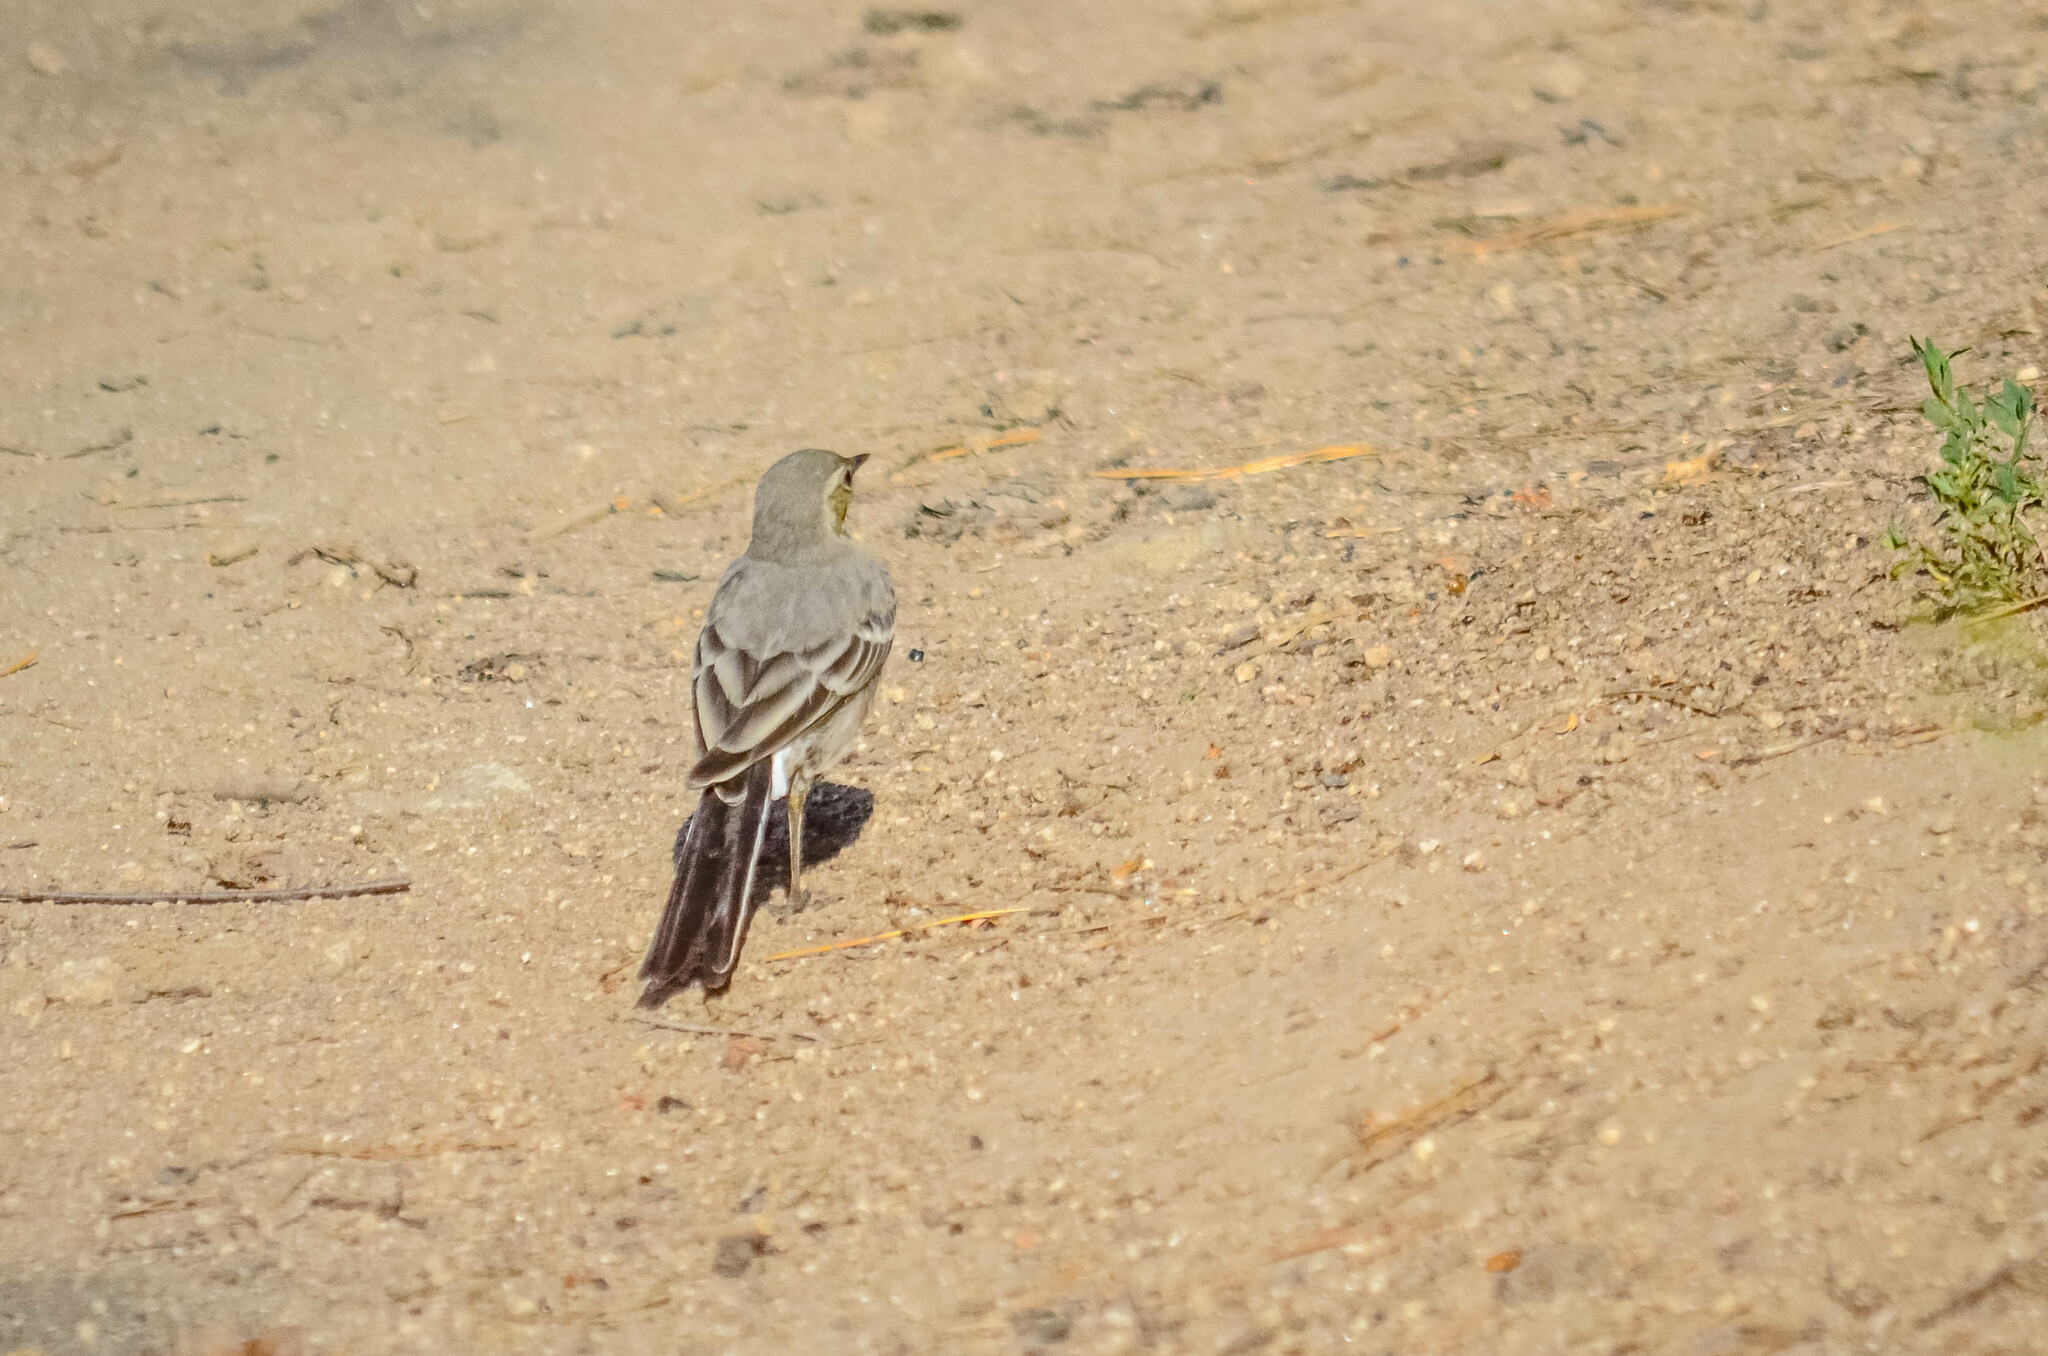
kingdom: Animalia
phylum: Chordata
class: Aves
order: Passeriformes
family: Motacillidae
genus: Motacilla
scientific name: Motacilla alba
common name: White wagtail
